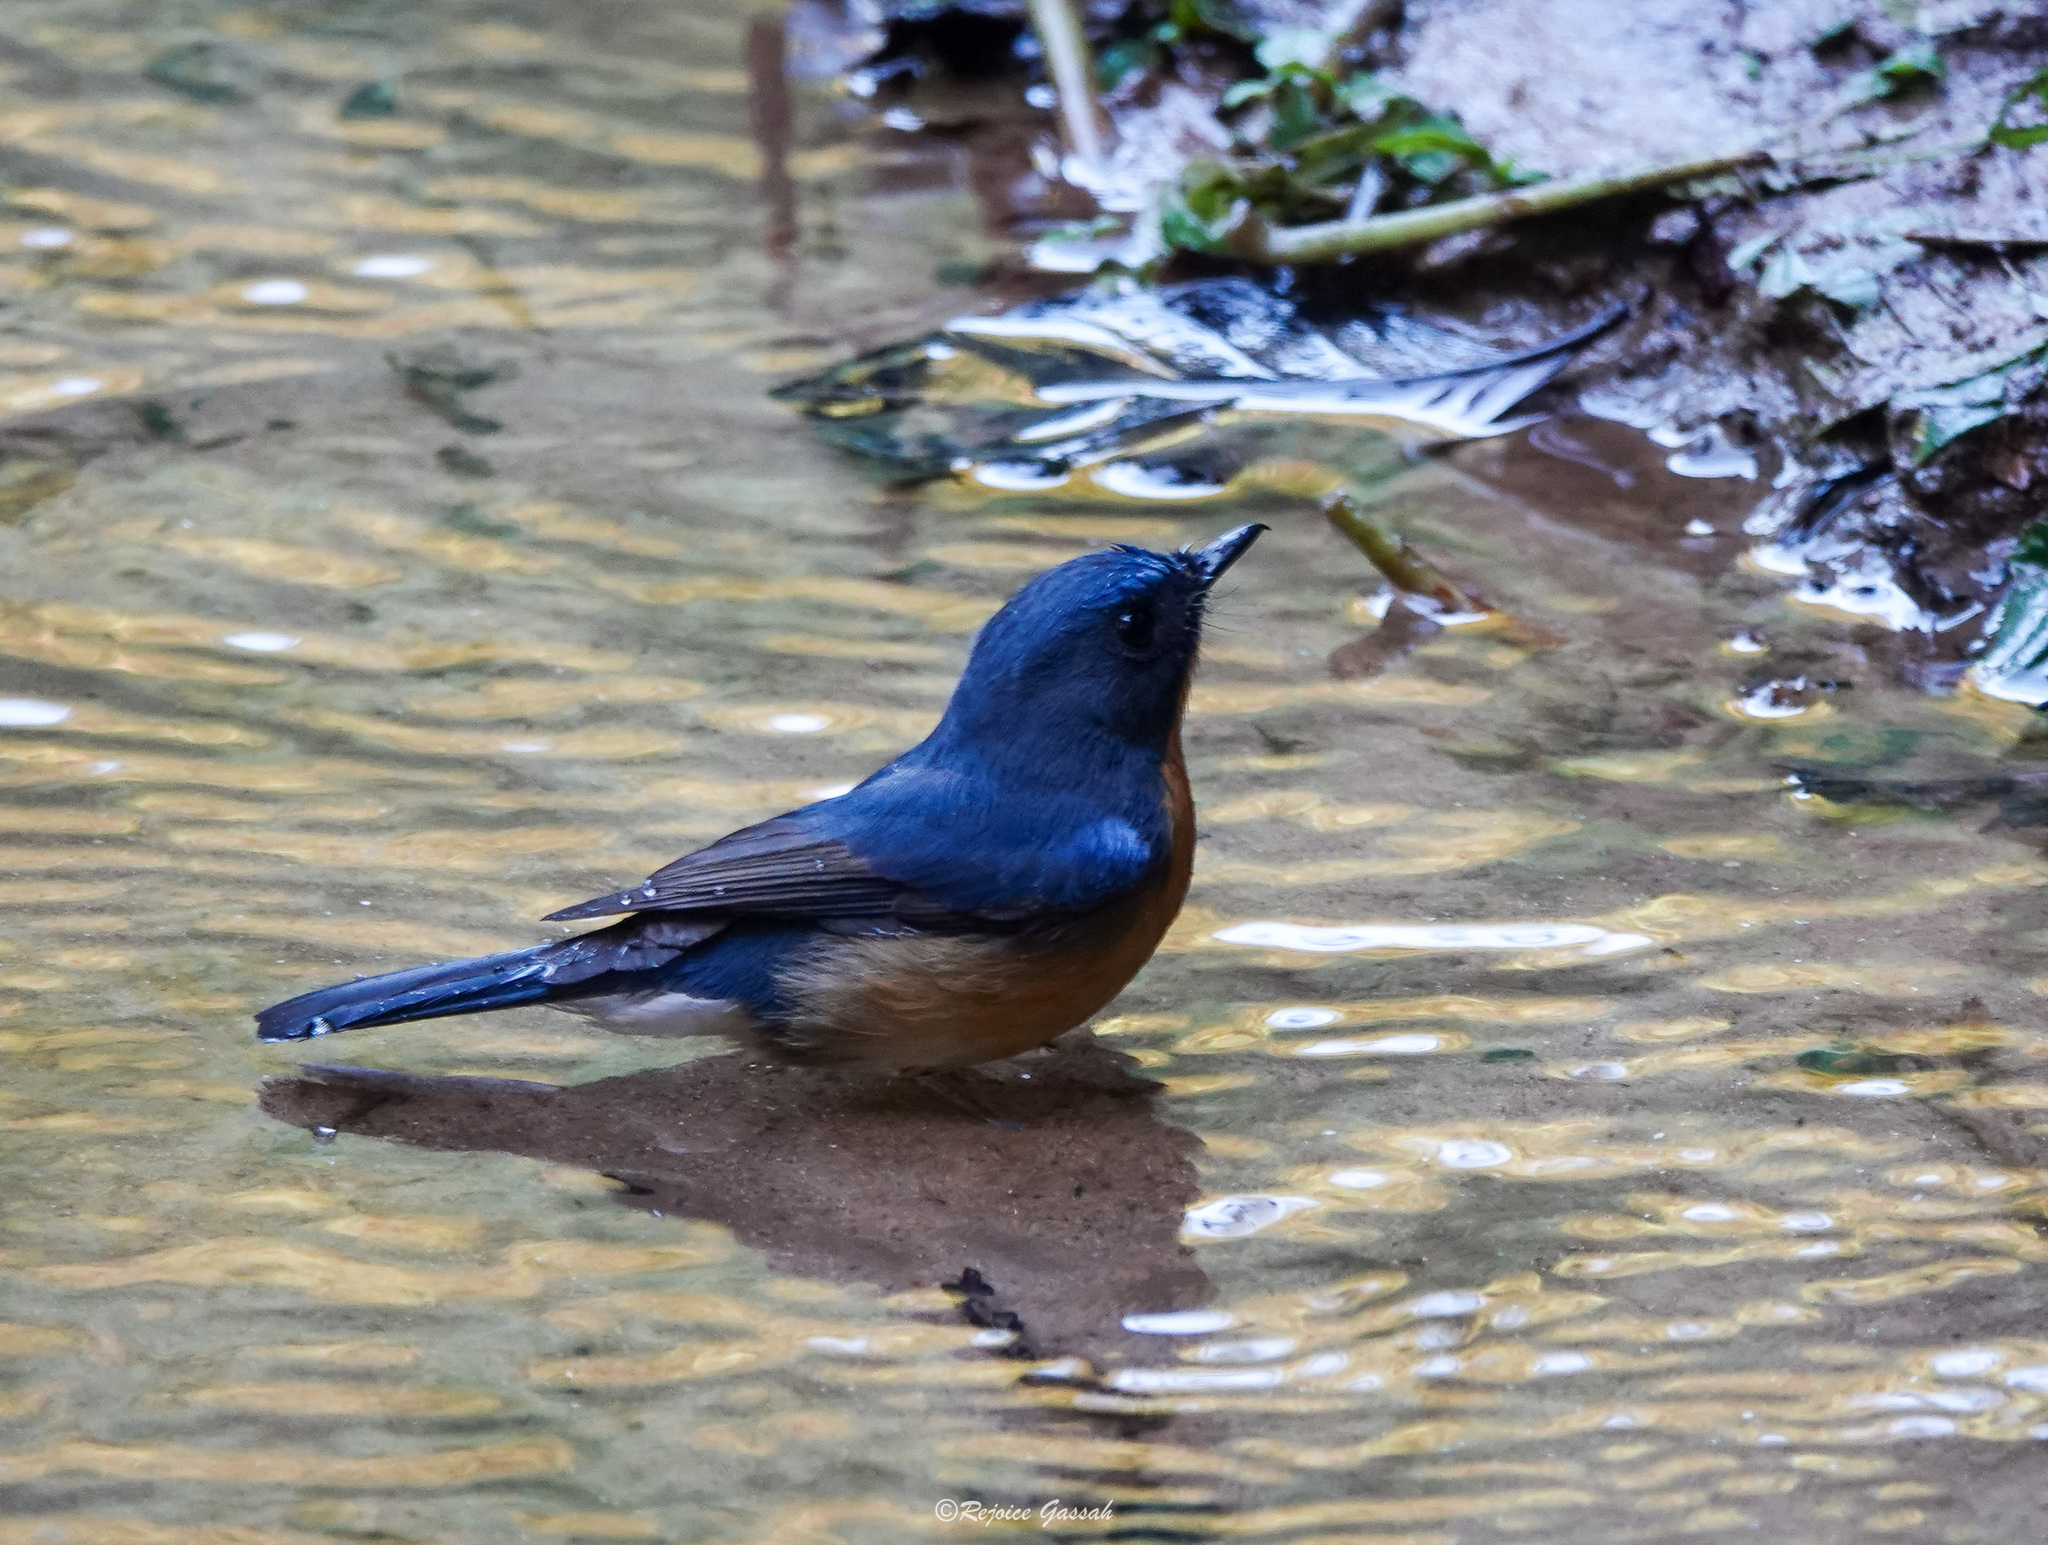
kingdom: Animalia
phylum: Chordata
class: Aves
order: Passeriformes
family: Muscicapidae
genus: Cyornis
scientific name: Cyornis whitei
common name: Hill blue flycatcher
